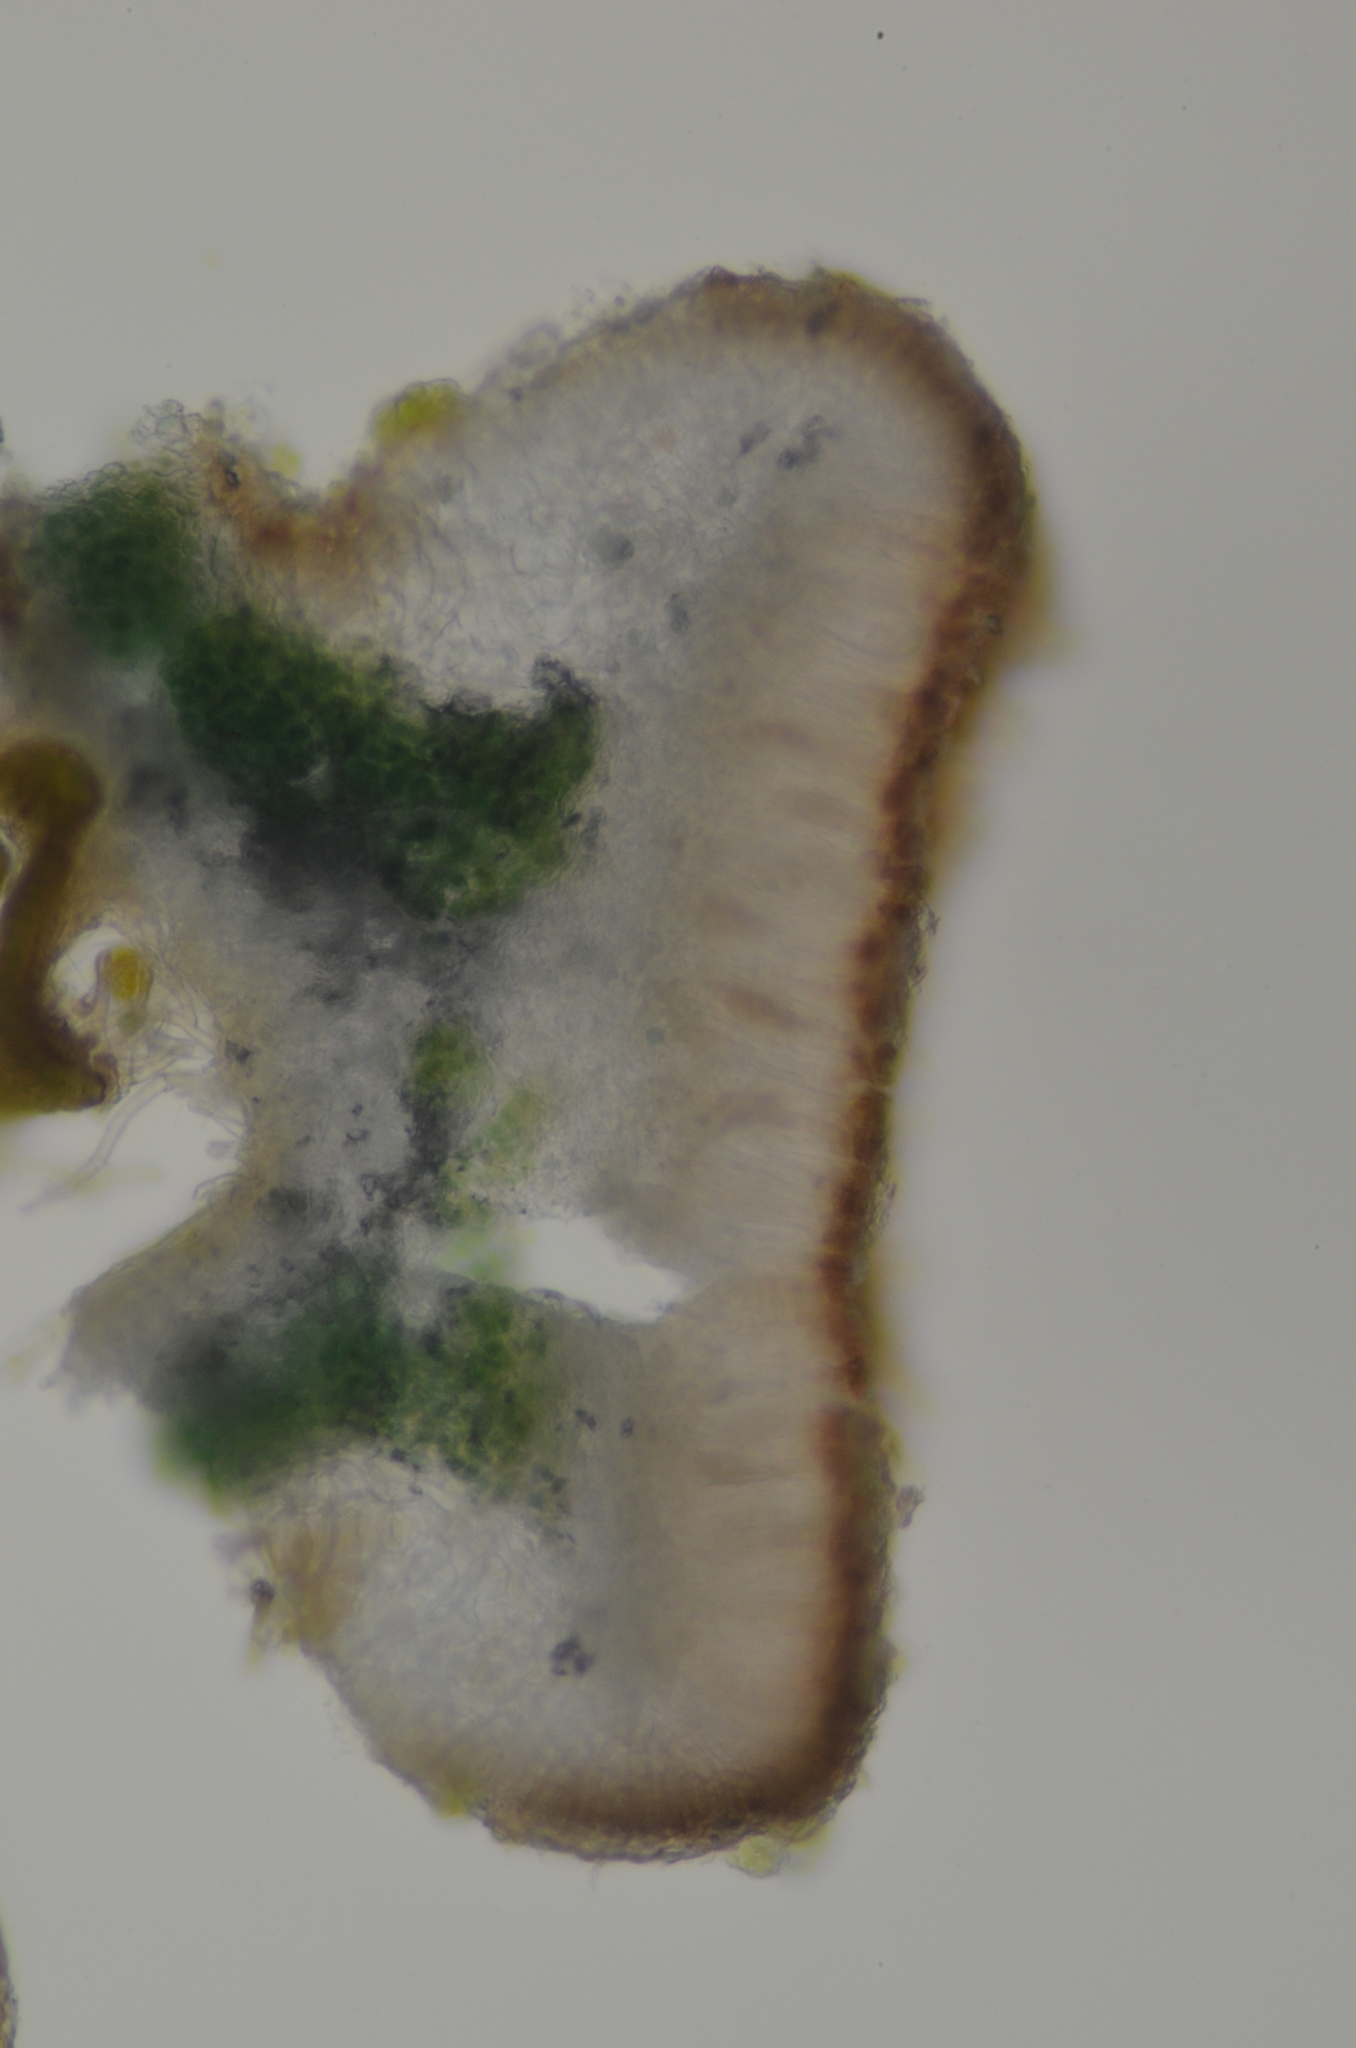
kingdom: Fungi
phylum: Ascomycota
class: Lecanoromycetes
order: Peltigerales
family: Massalongiaceae
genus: Massalongia
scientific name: Massalongia carnosa
